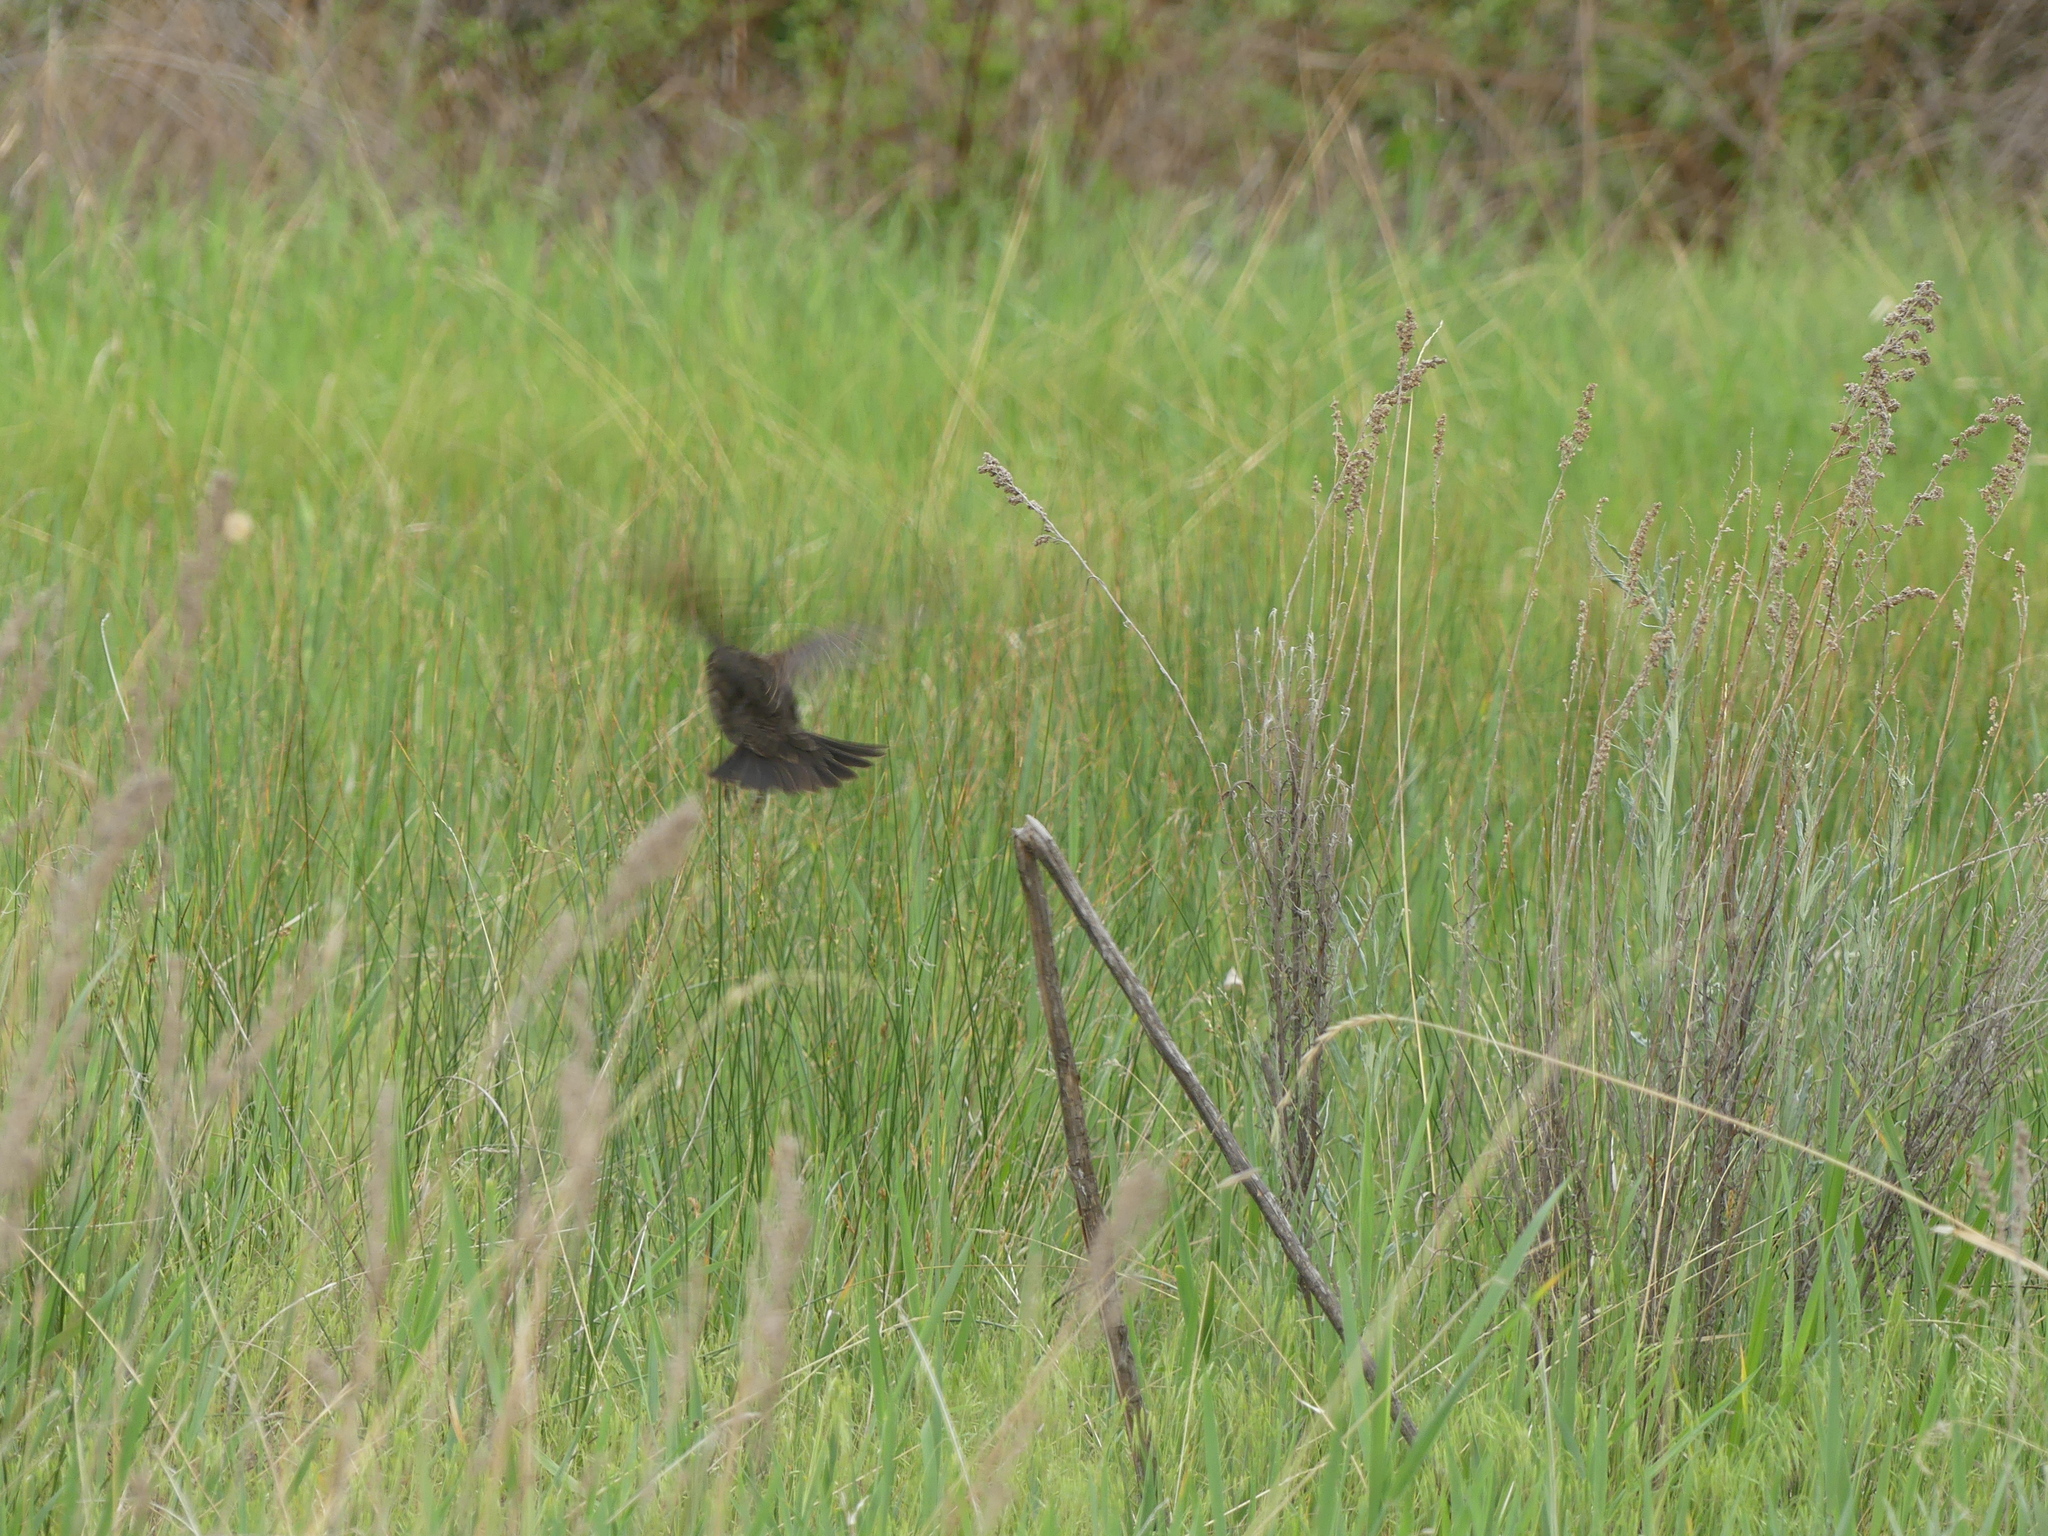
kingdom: Animalia
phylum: Chordata
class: Aves
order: Passeriformes
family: Icteridae
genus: Agelaius
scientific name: Agelaius phoeniceus
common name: Red-winged blackbird
